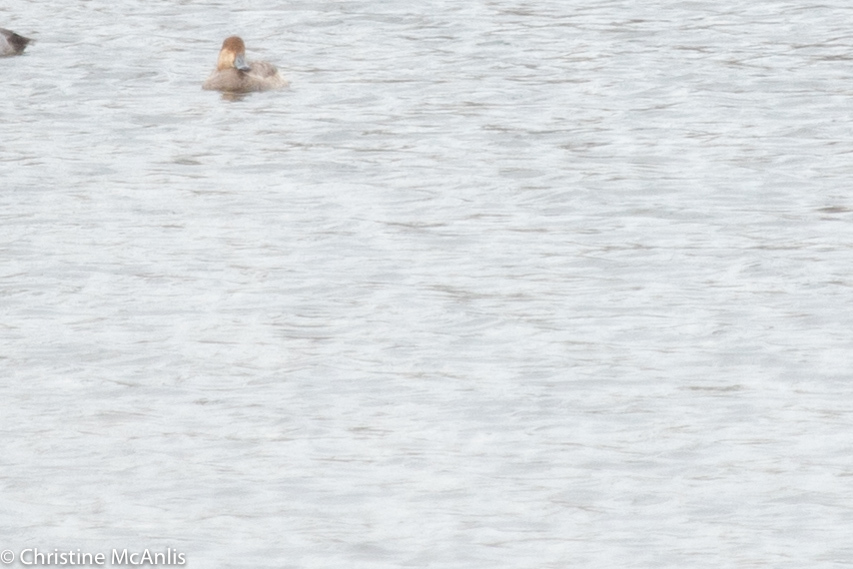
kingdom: Animalia
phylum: Chordata
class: Aves
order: Anseriformes
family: Anatidae
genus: Aythya
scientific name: Aythya americana
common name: Redhead
